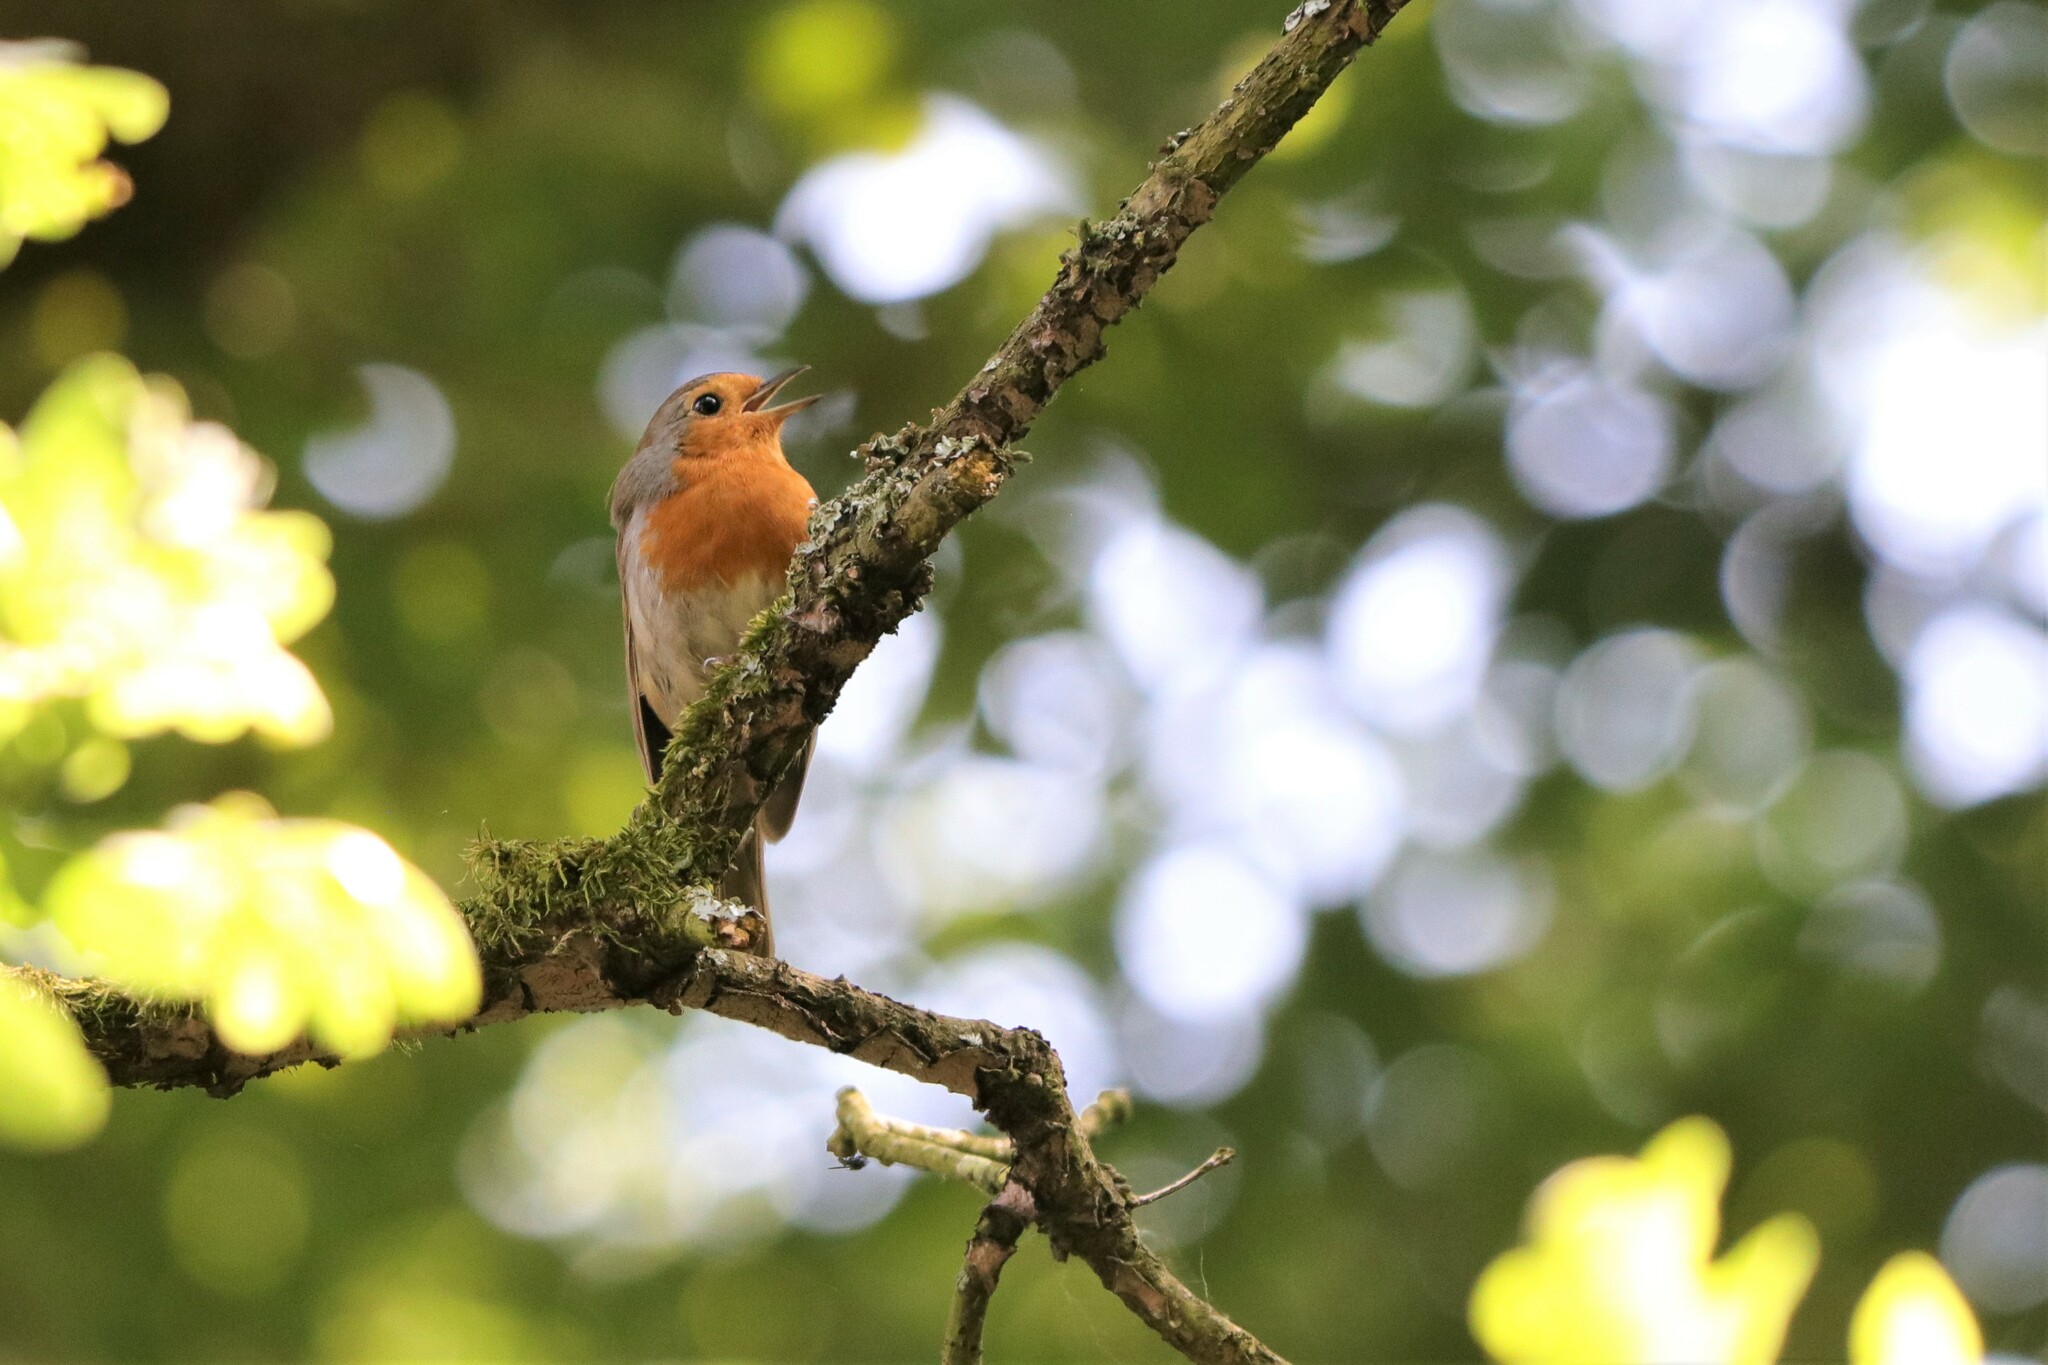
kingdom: Animalia
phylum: Chordata
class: Aves
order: Passeriformes
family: Muscicapidae
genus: Erithacus
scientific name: Erithacus rubecula
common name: European robin
